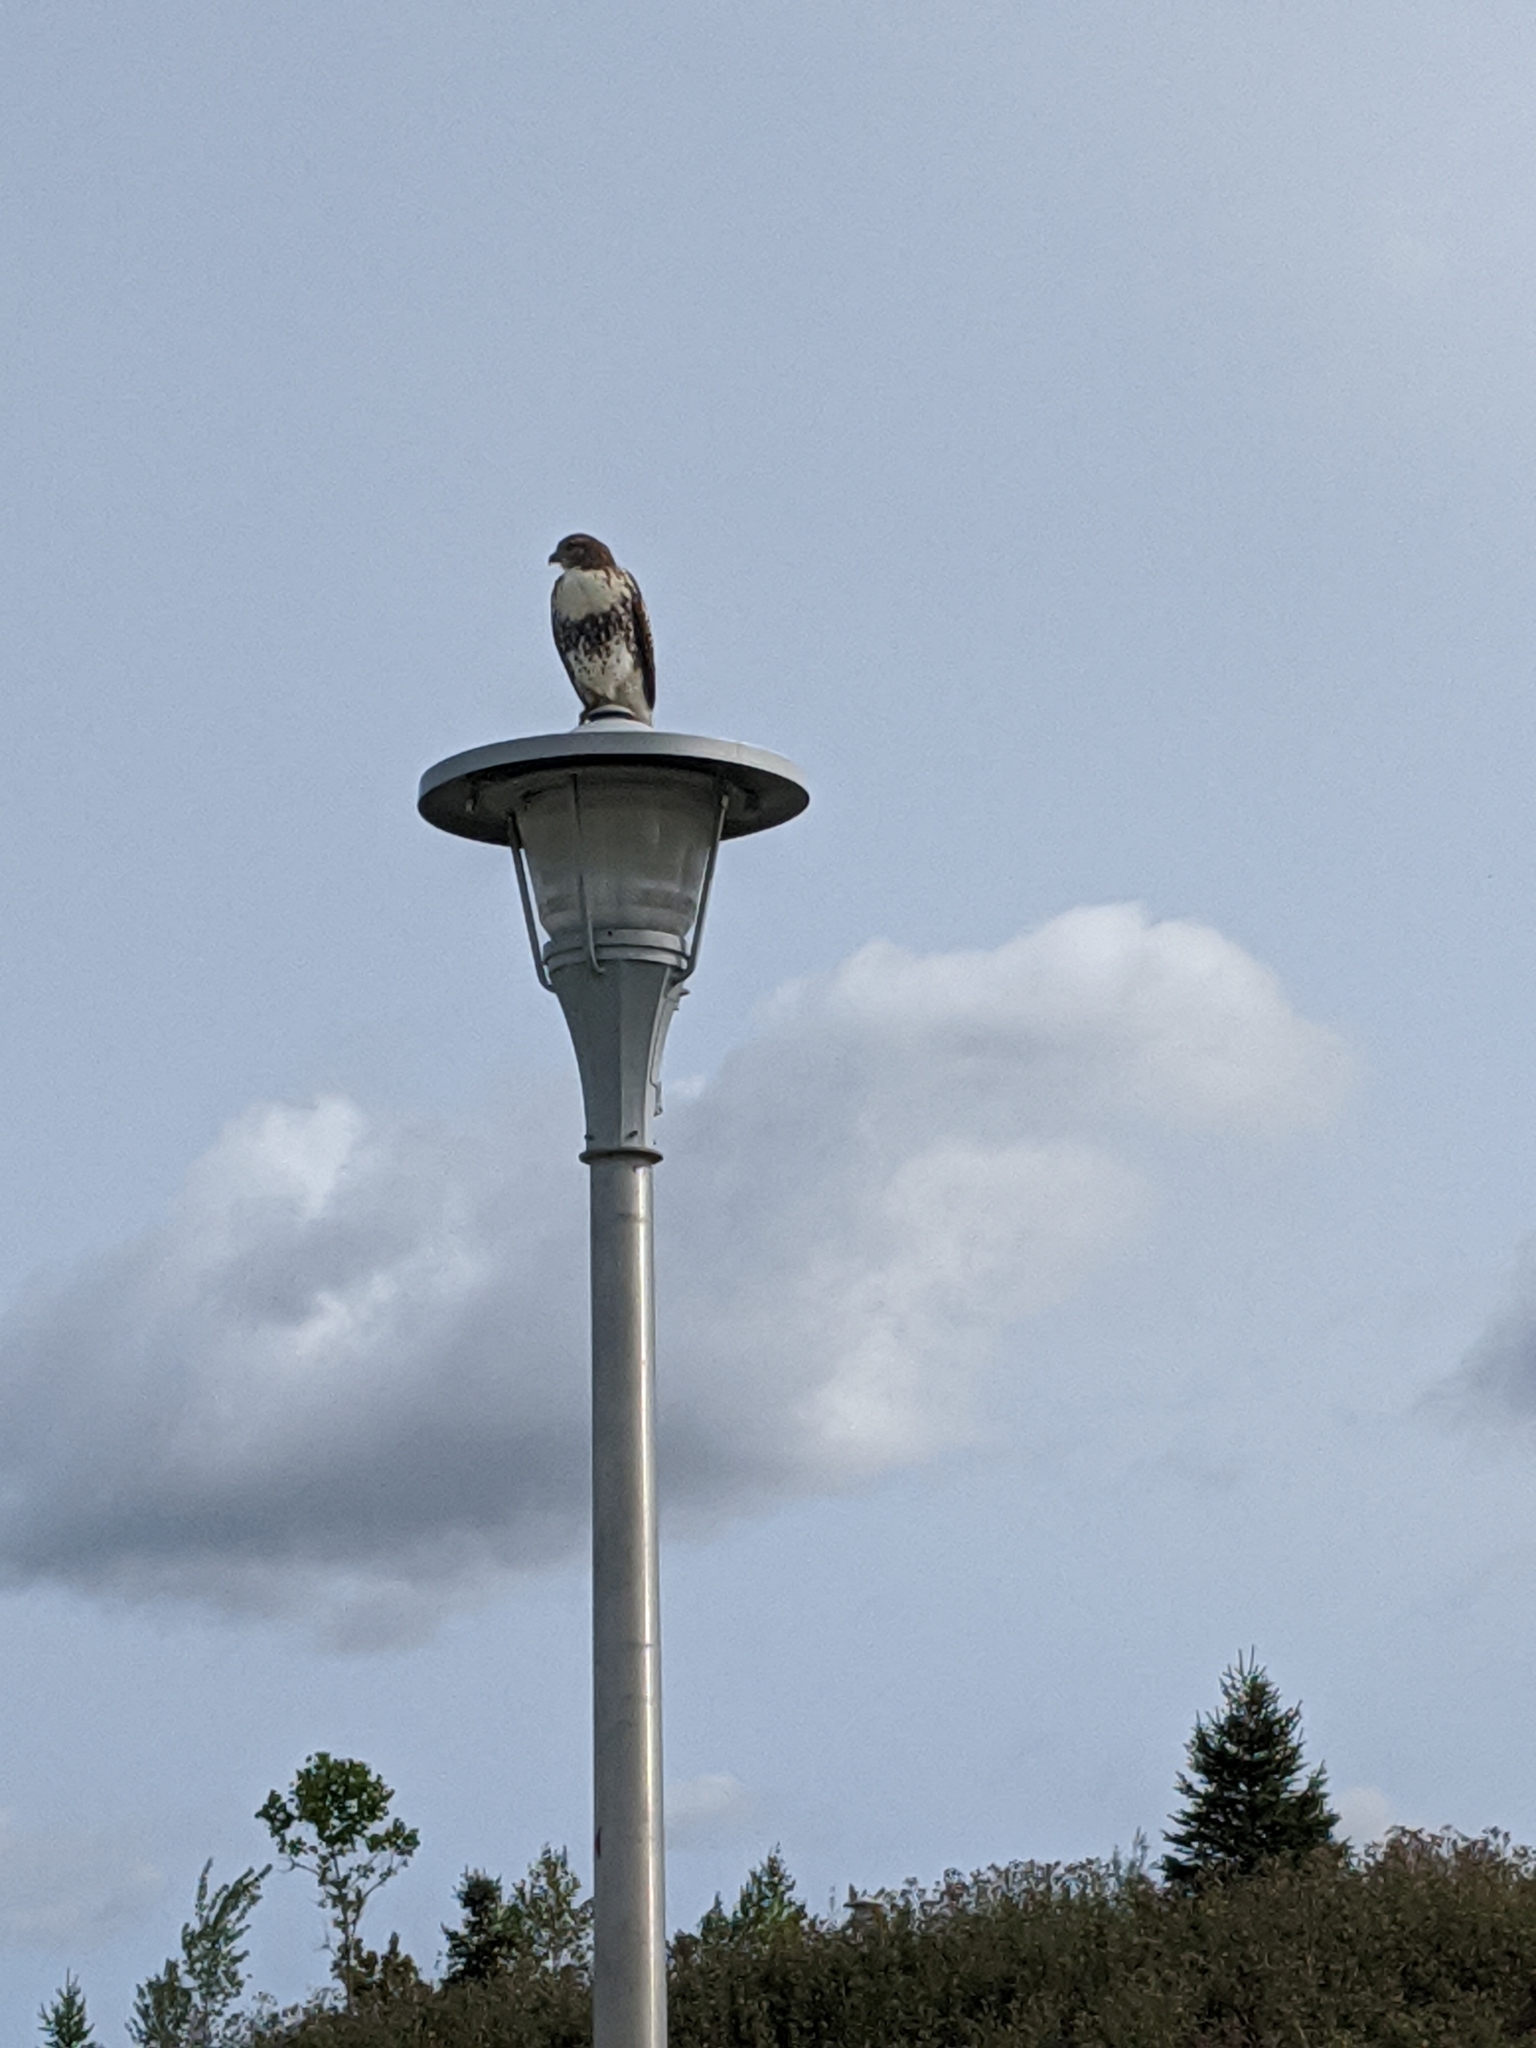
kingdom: Animalia
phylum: Chordata
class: Aves
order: Accipitriformes
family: Accipitridae
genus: Buteo
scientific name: Buteo jamaicensis
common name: Red-tailed hawk
